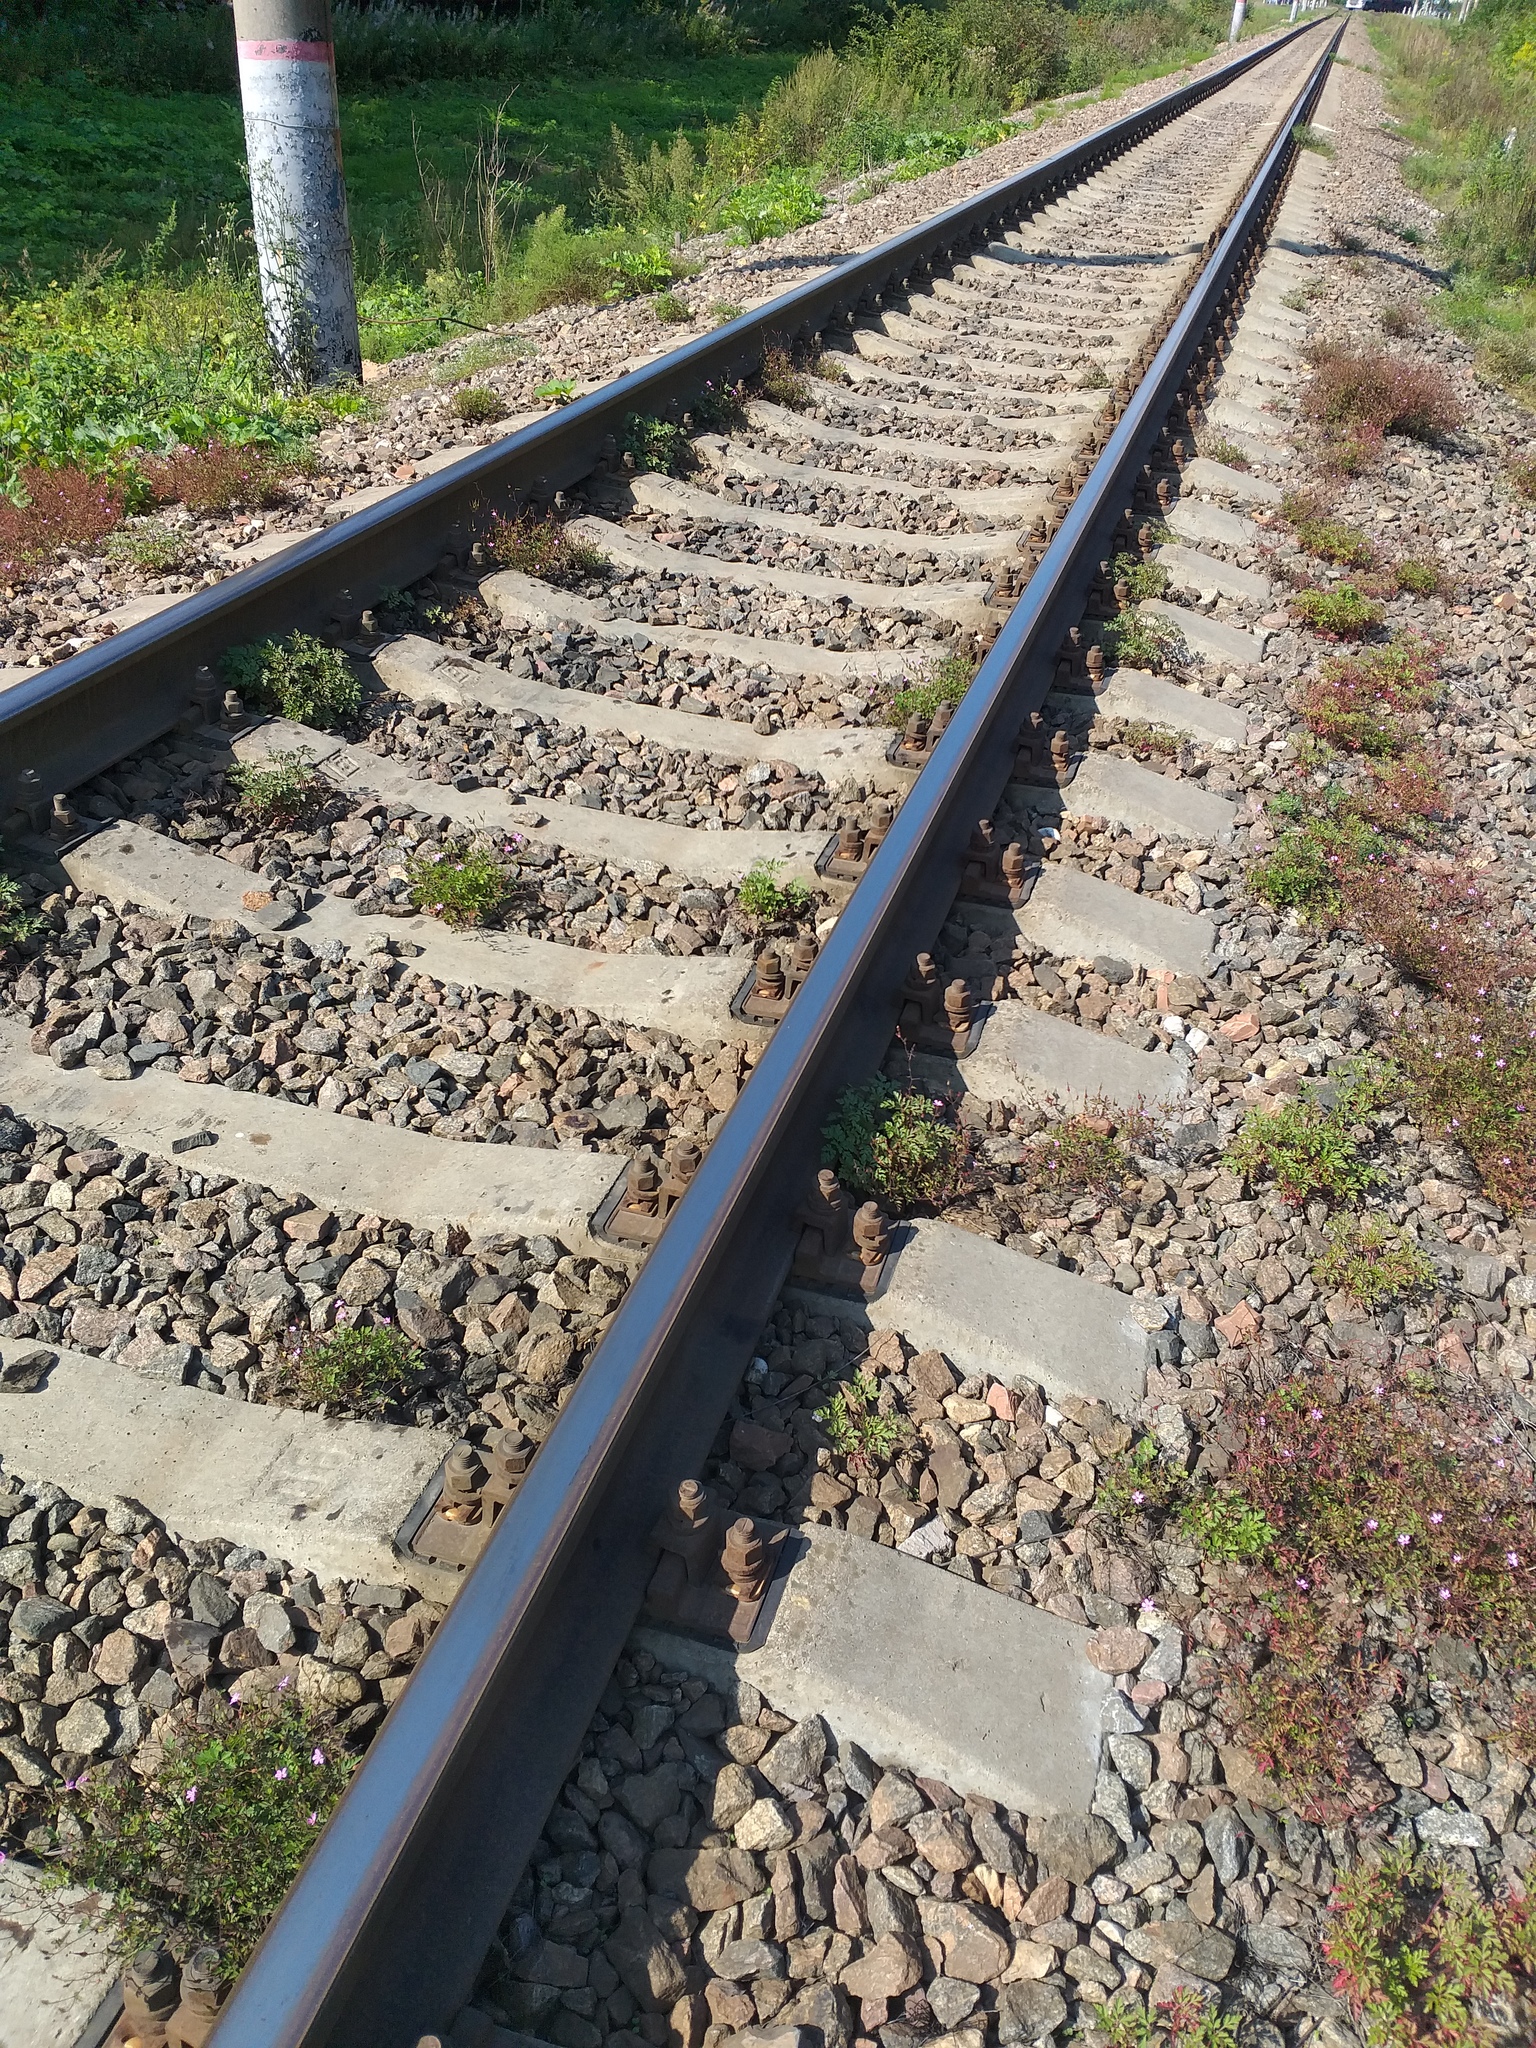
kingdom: Plantae
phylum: Tracheophyta
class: Magnoliopsida
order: Geraniales
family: Geraniaceae
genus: Geranium
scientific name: Geranium robertianum
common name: Herb-robert
